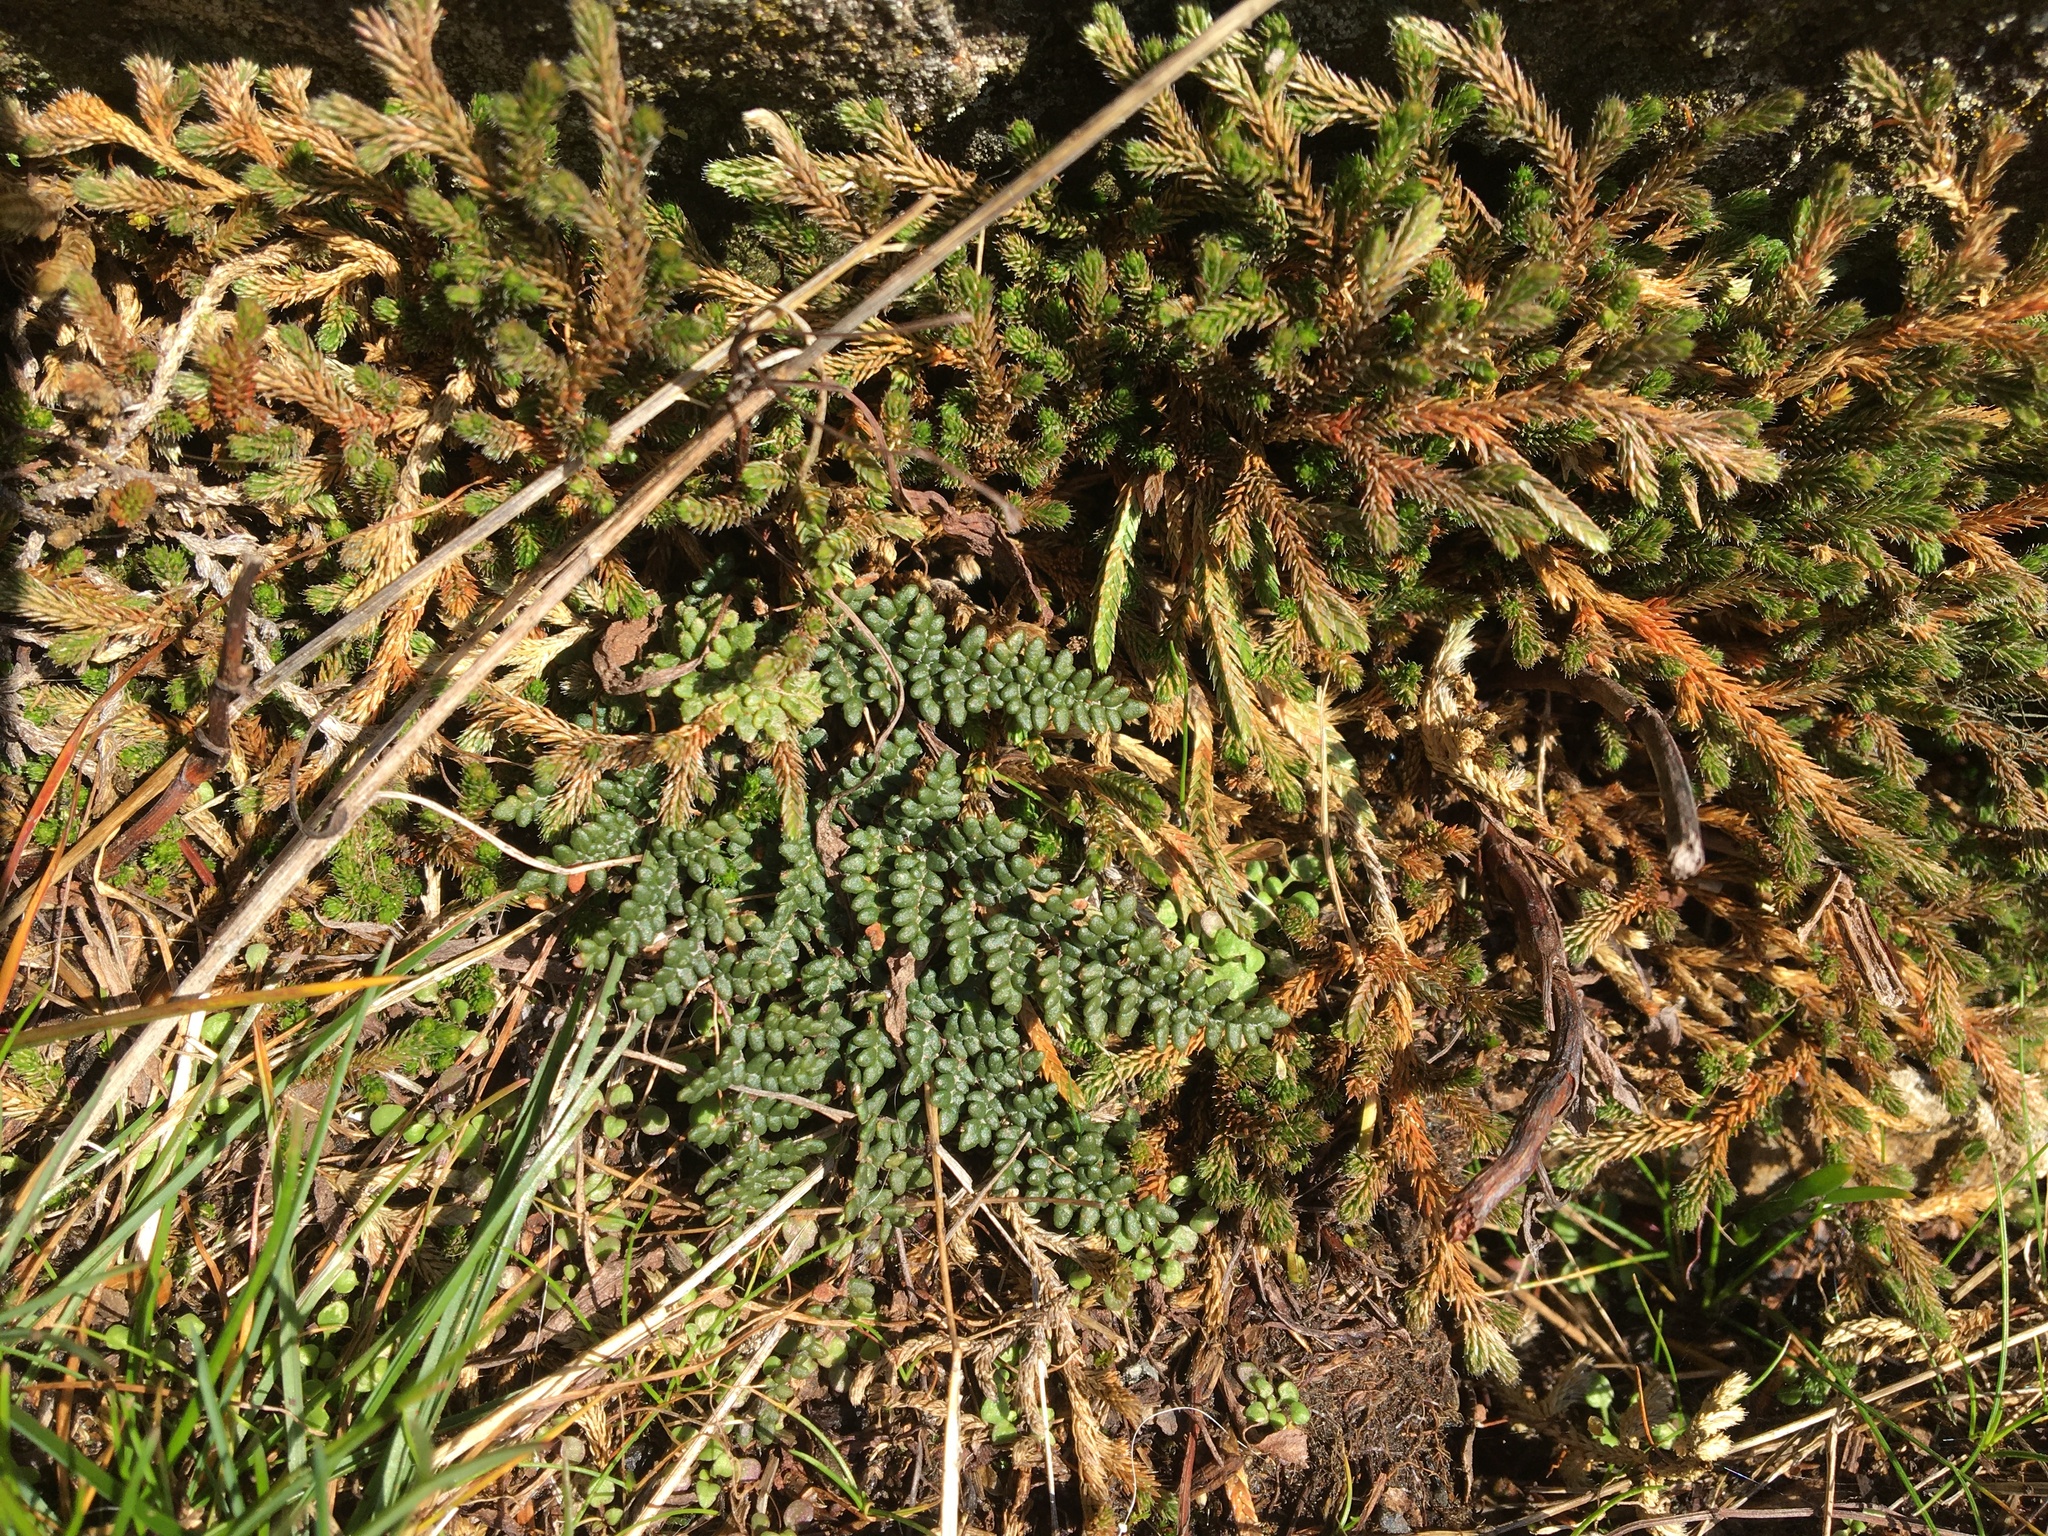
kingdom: Plantae
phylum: Tracheophyta
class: Polypodiopsida
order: Polypodiales
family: Pteridaceae
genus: Myriopteris
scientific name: Myriopteris gracillima
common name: Lace fern
